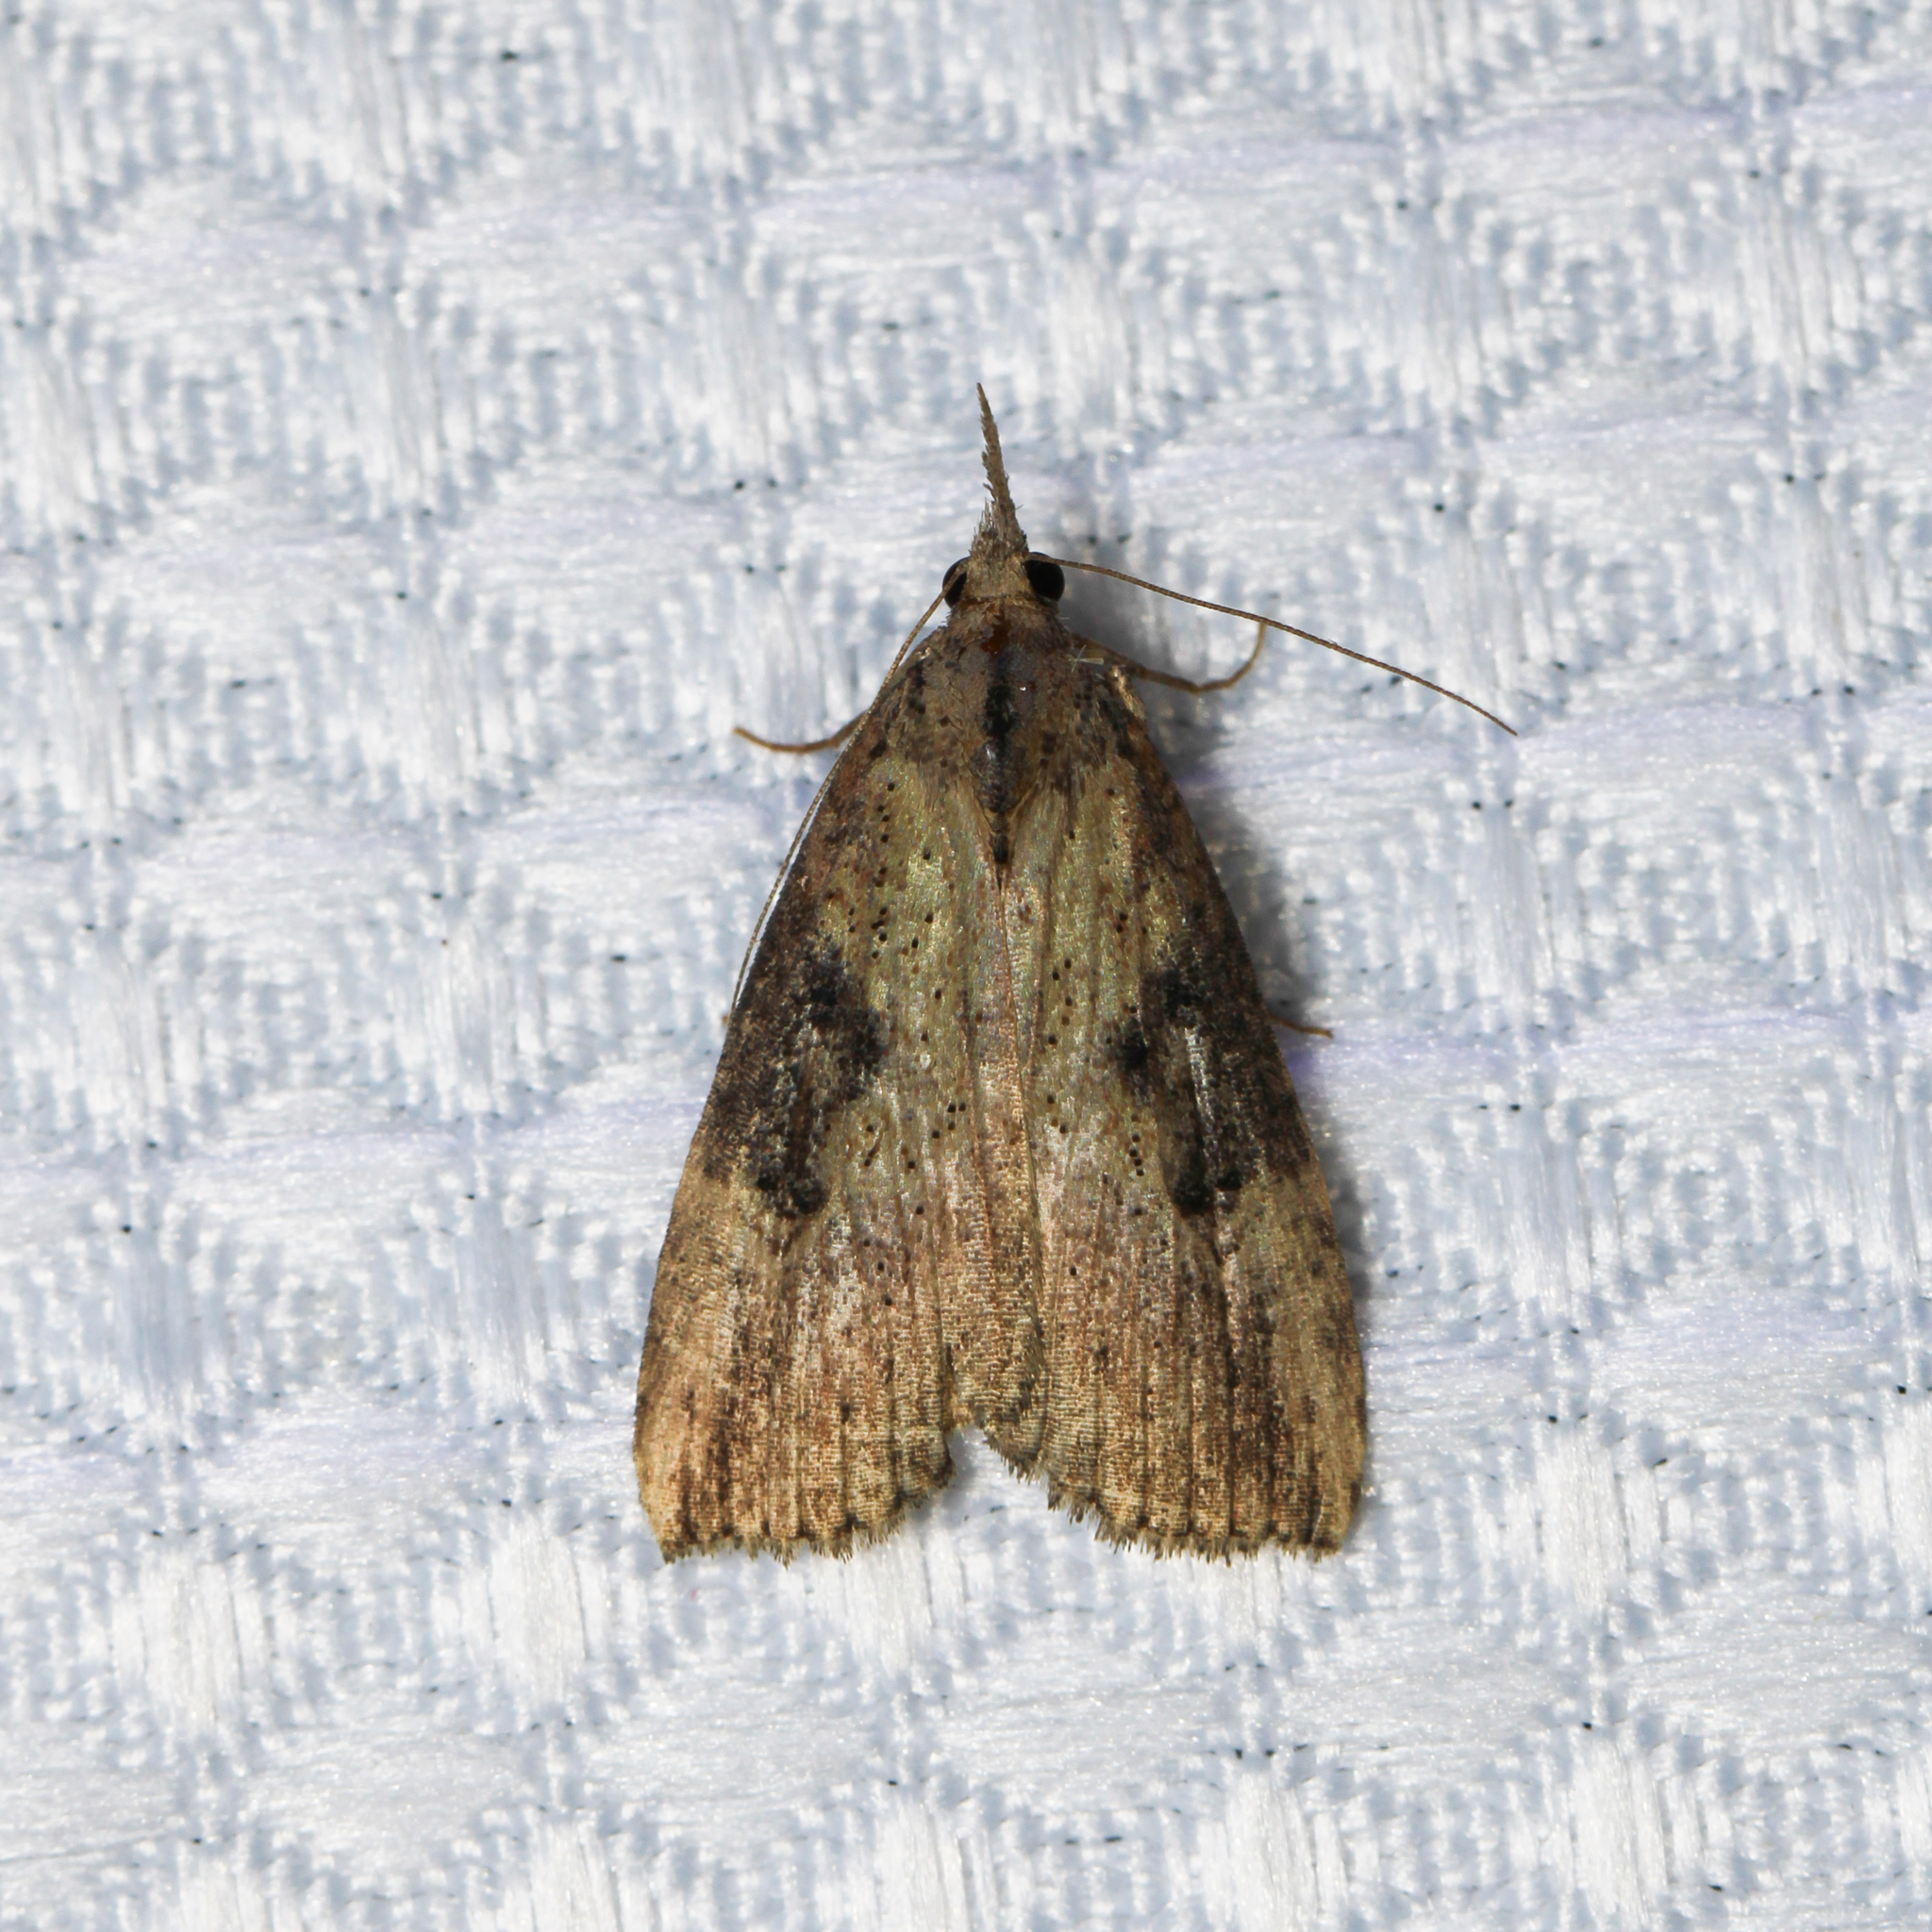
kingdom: Animalia
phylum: Arthropoda
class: Insecta
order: Lepidoptera
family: Erebidae
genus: Hypena
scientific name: Hypena humuli
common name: Hop vine snout
